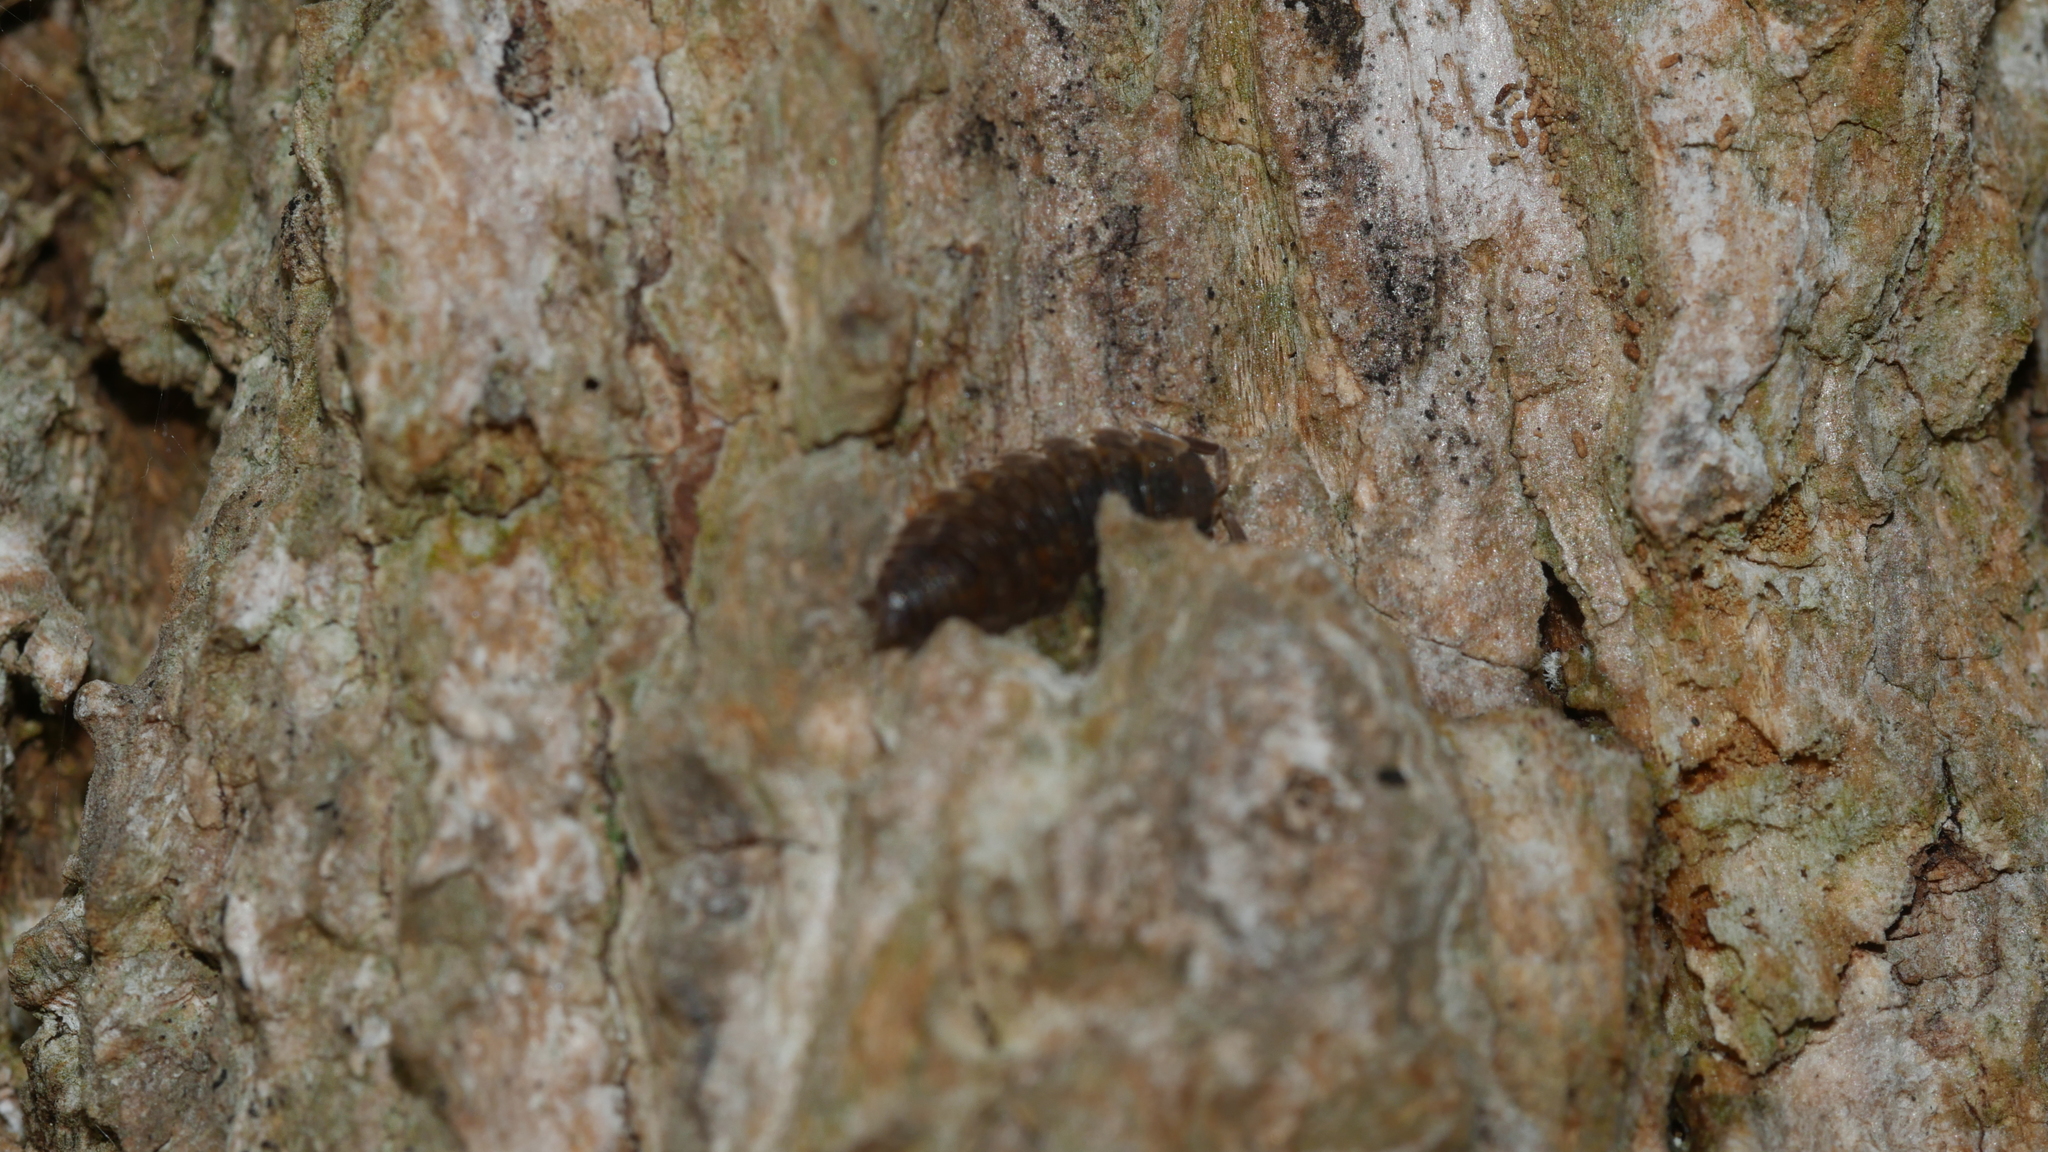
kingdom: Animalia
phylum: Arthropoda
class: Malacostraca
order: Isopoda
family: Porcellionidae
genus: Porcellio
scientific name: Porcellio scaber
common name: Common rough woodlouse
